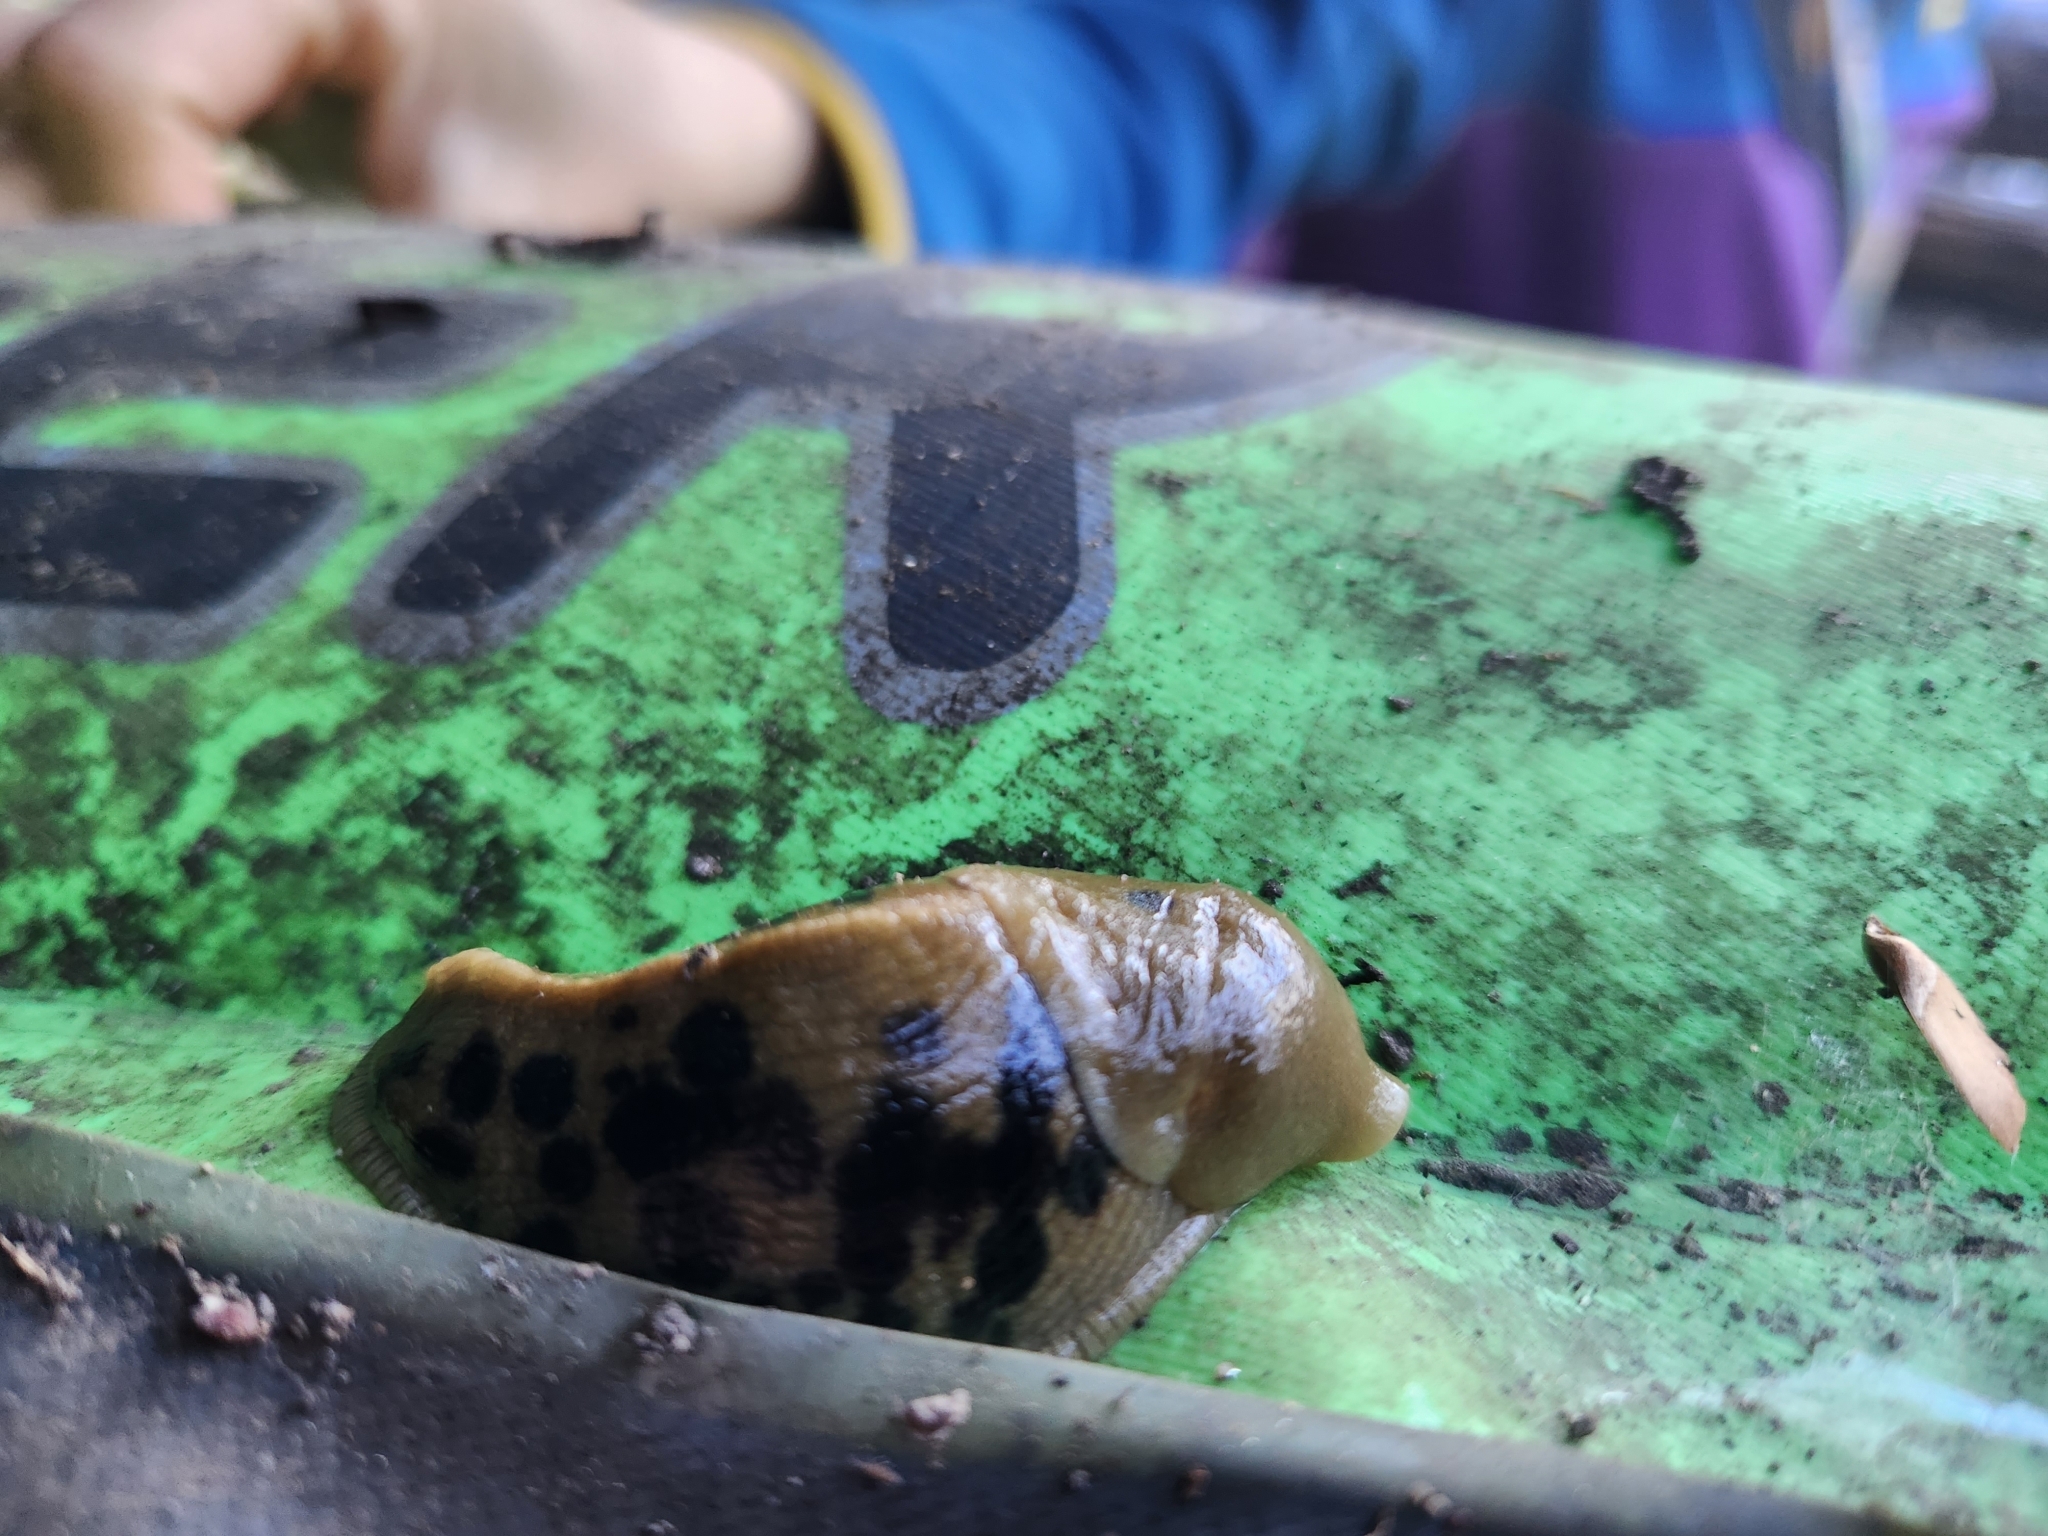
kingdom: Animalia
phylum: Mollusca
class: Gastropoda
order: Stylommatophora
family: Ariolimacidae
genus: Ariolimax
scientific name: Ariolimax columbianus
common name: Pacific banana slug
